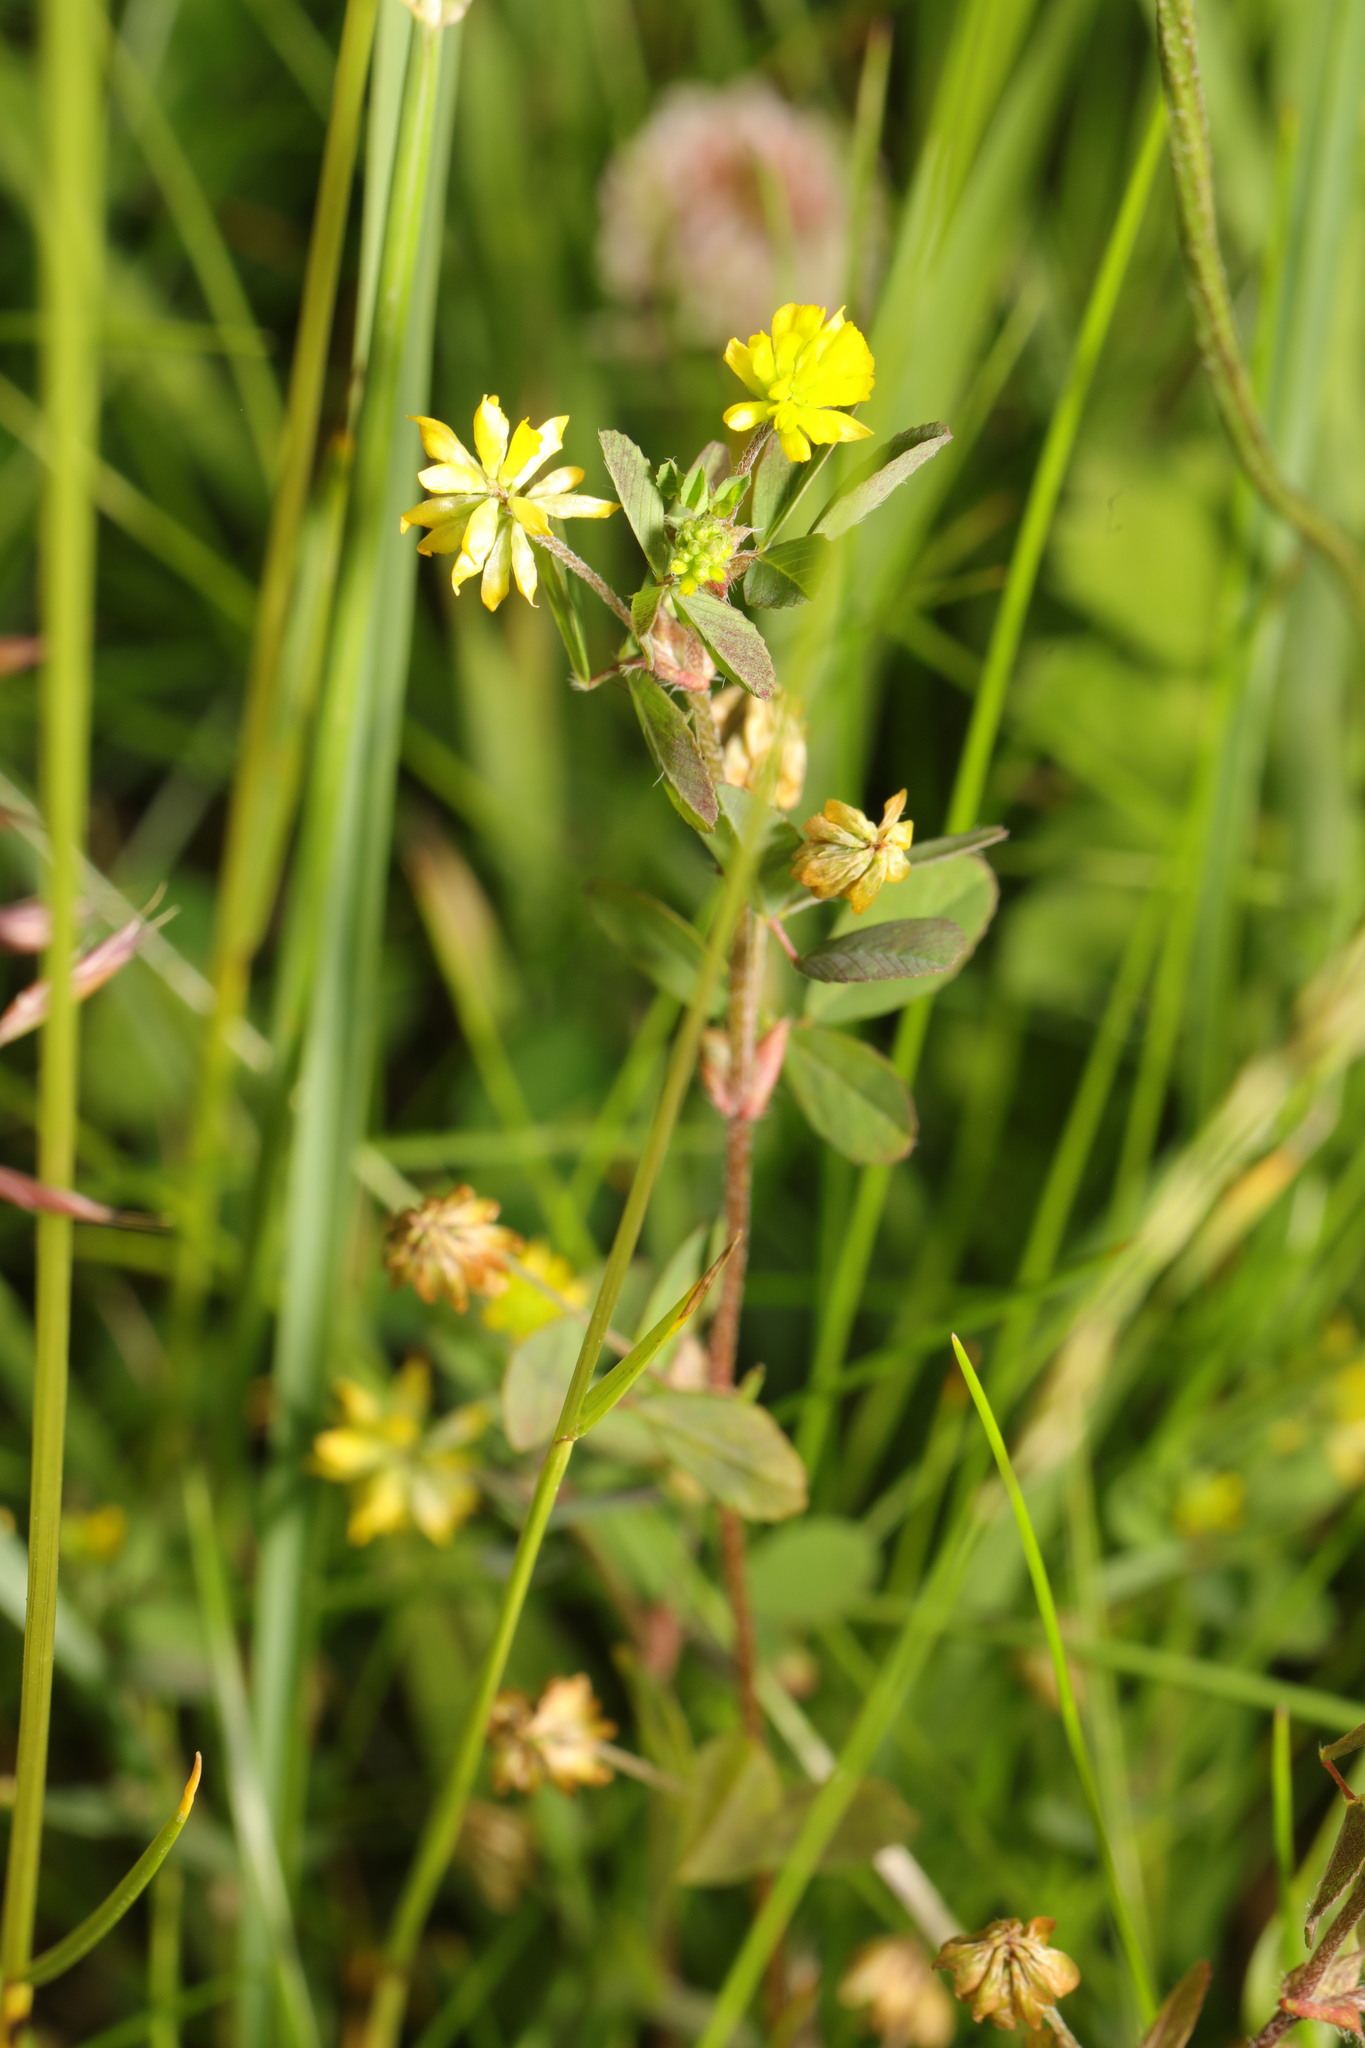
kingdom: Plantae
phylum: Tracheophyta
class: Magnoliopsida
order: Fabales
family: Fabaceae
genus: Trifolium
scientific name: Trifolium dubium
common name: Suckling clover
